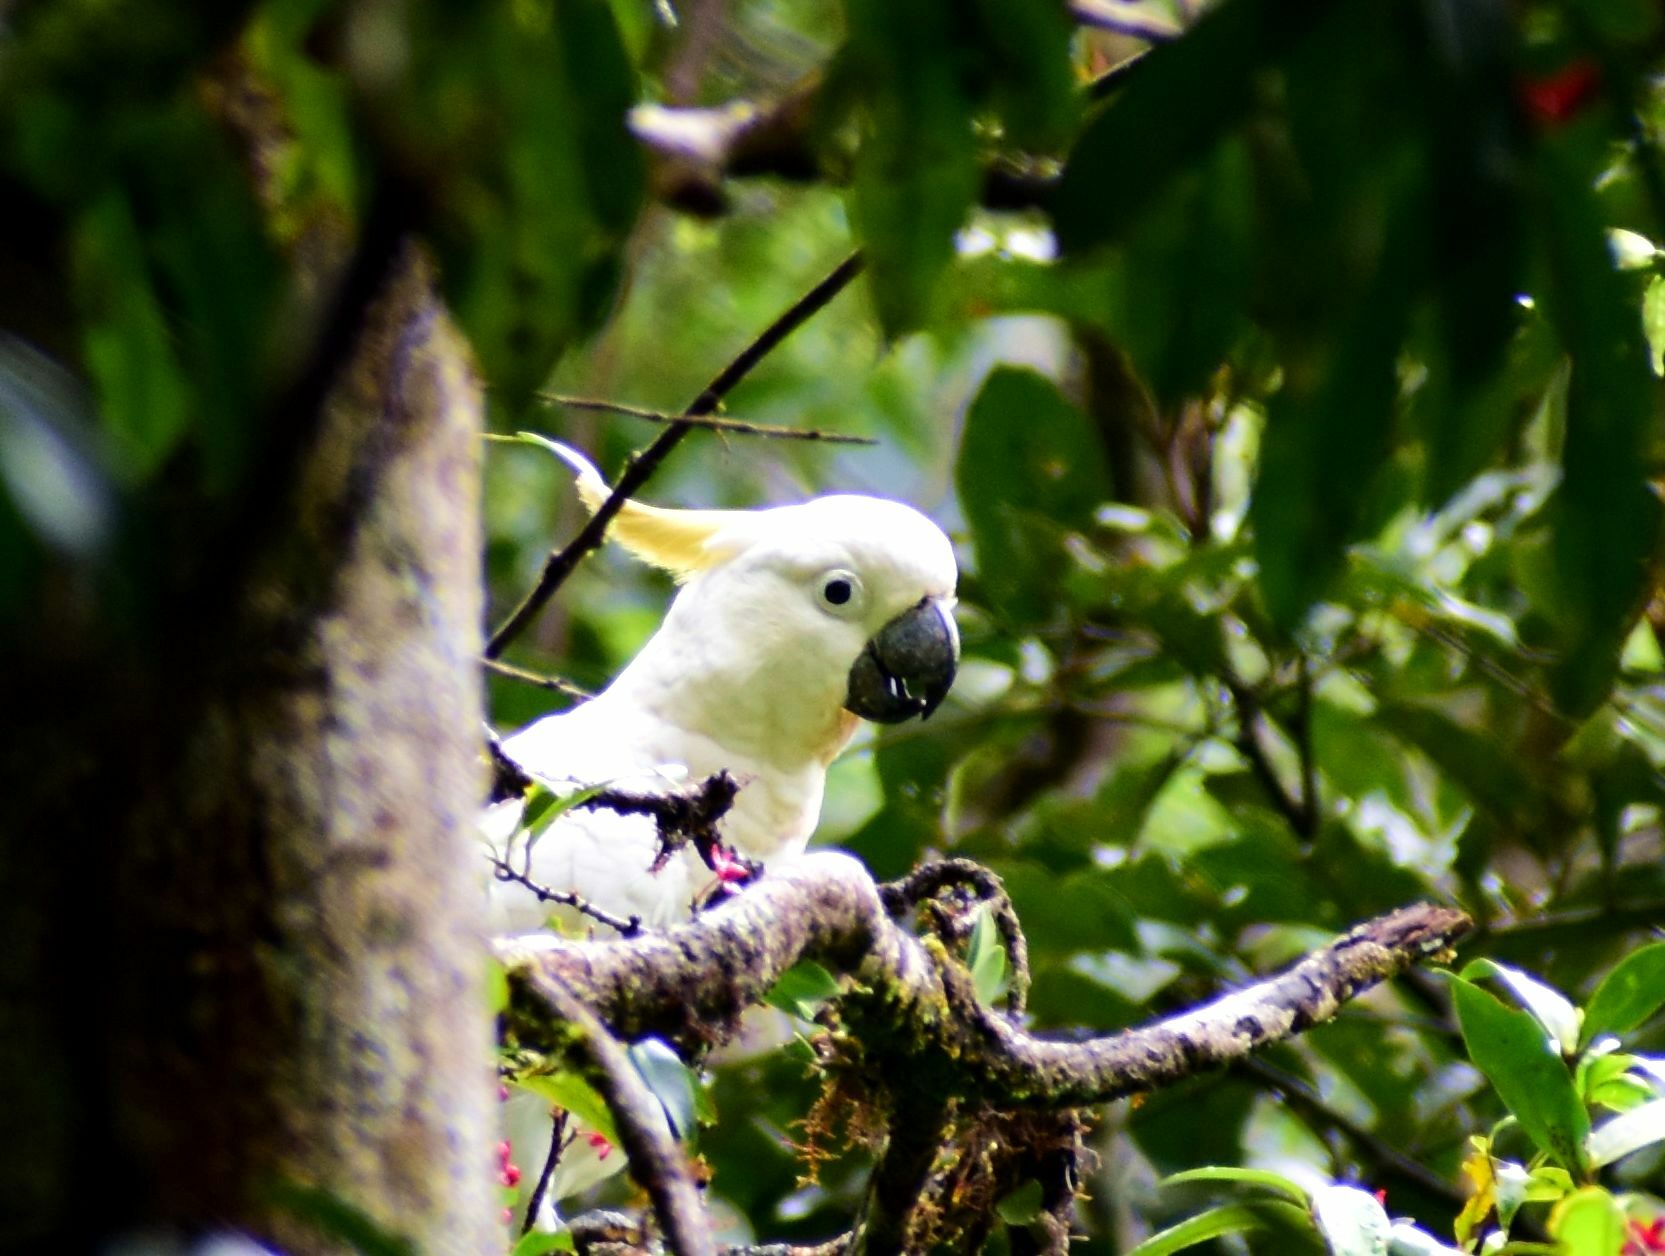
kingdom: Animalia
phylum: Chordata
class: Aves
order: Psittaciformes
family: Psittacidae
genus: Cacatua
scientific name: Cacatua galerita
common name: Sulphur-crested cockatoo
